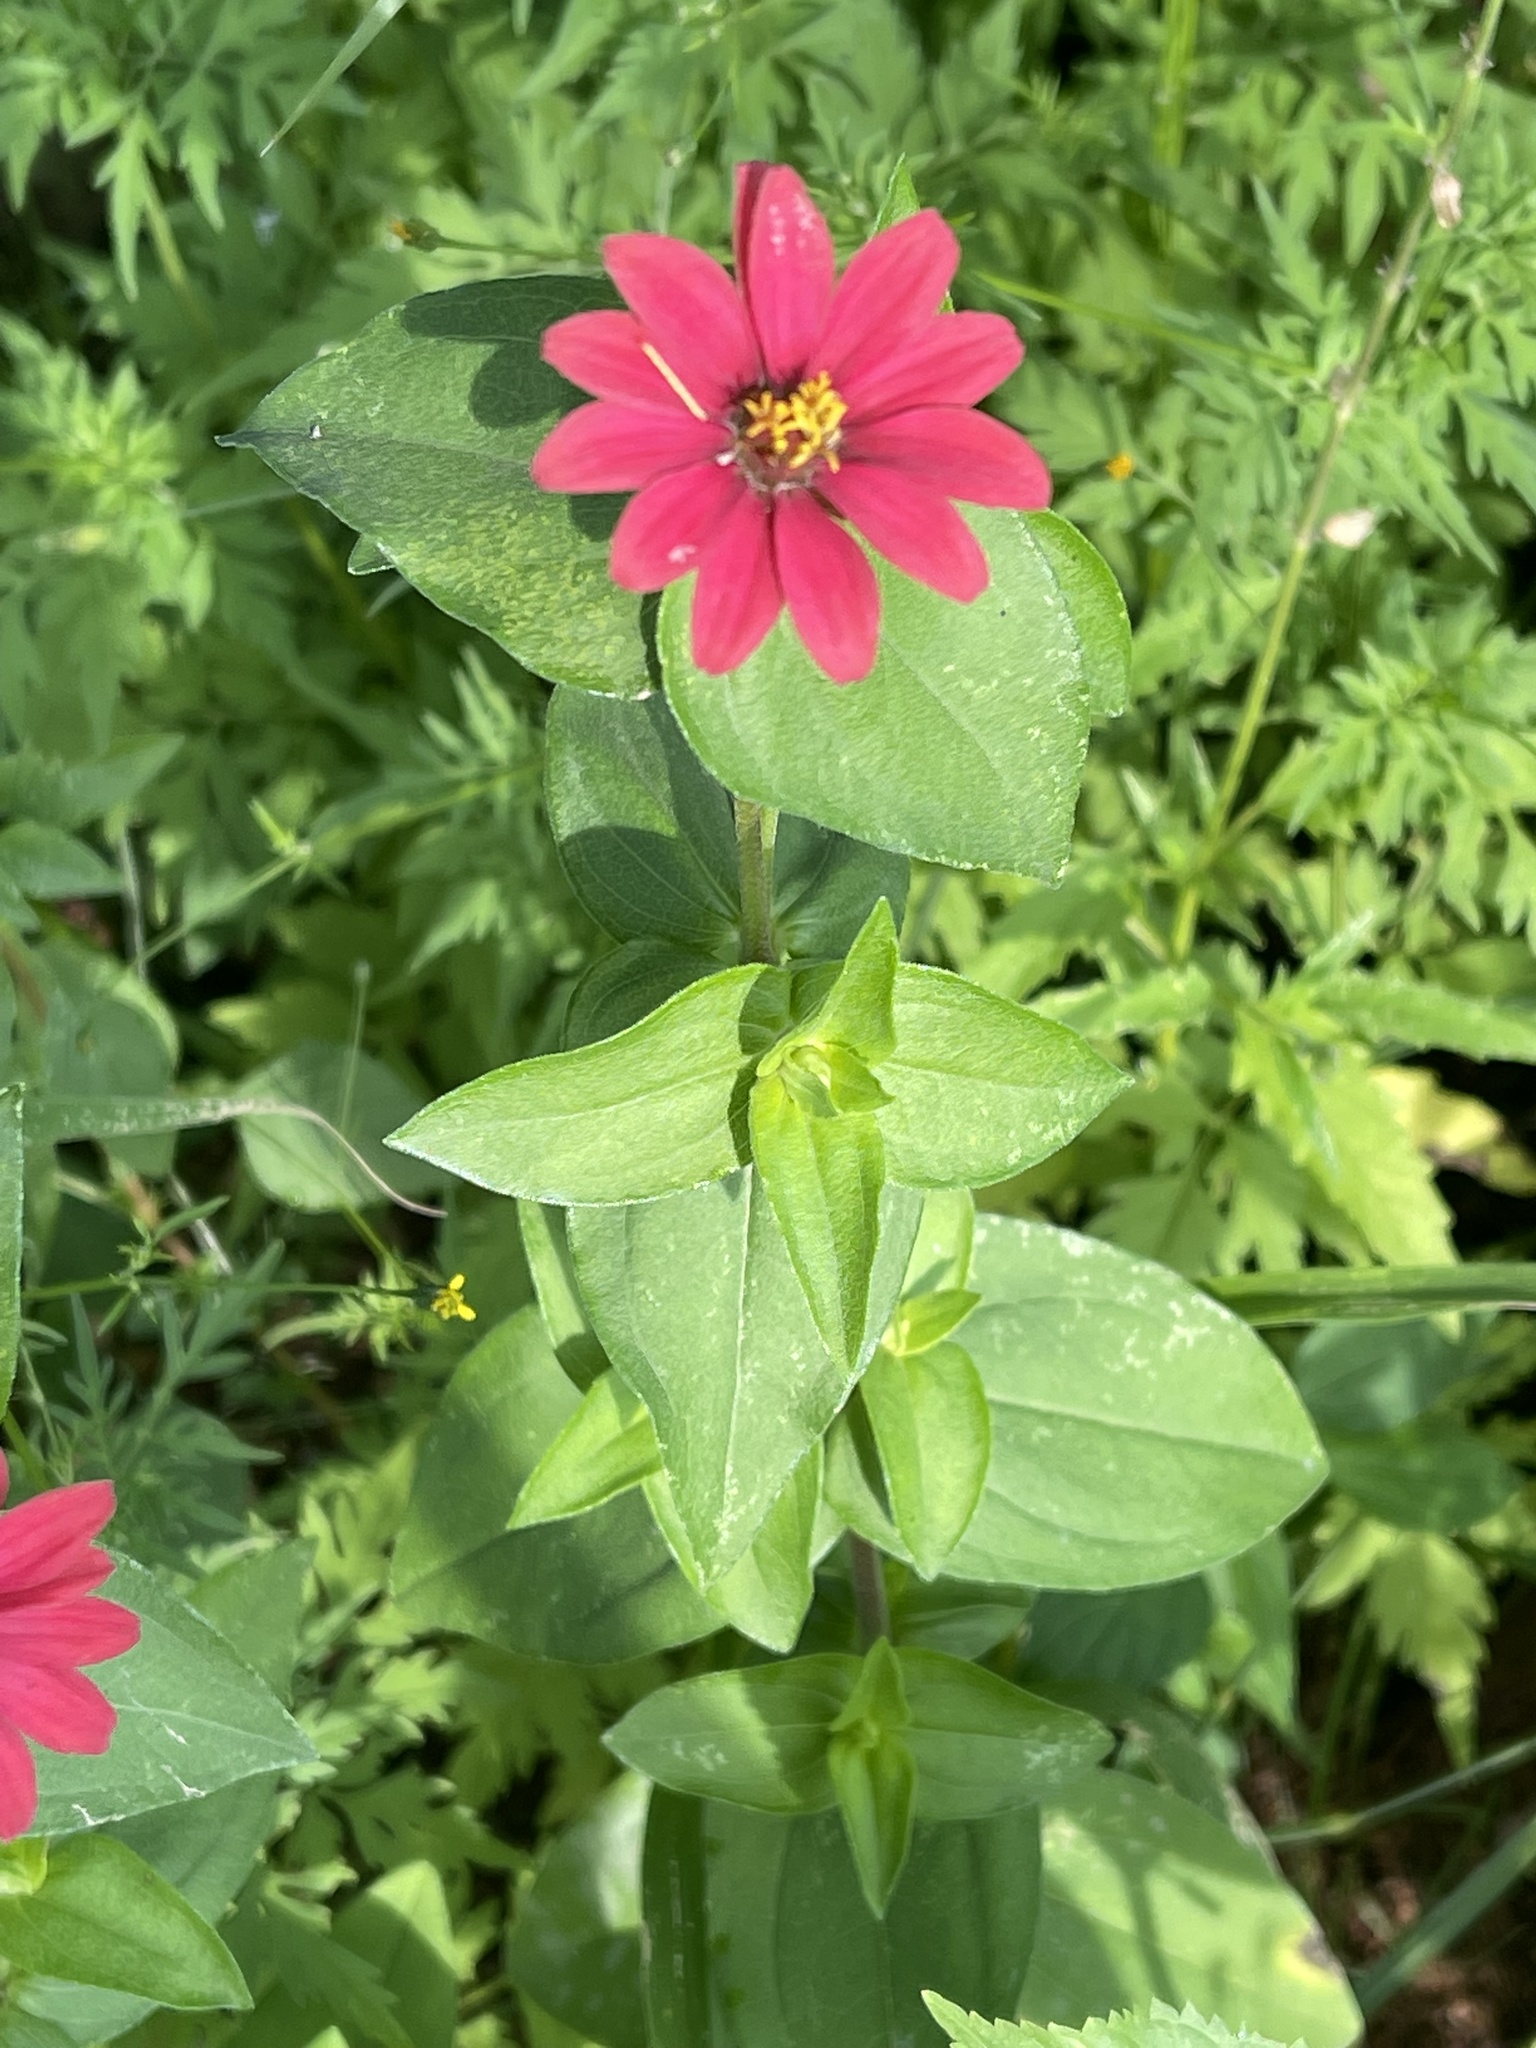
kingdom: Plantae
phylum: Tracheophyta
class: Magnoliopsida
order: Asterales
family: Asteraceae
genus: Zinnia
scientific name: Zinnia peruviana
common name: Peruvian zinnia
